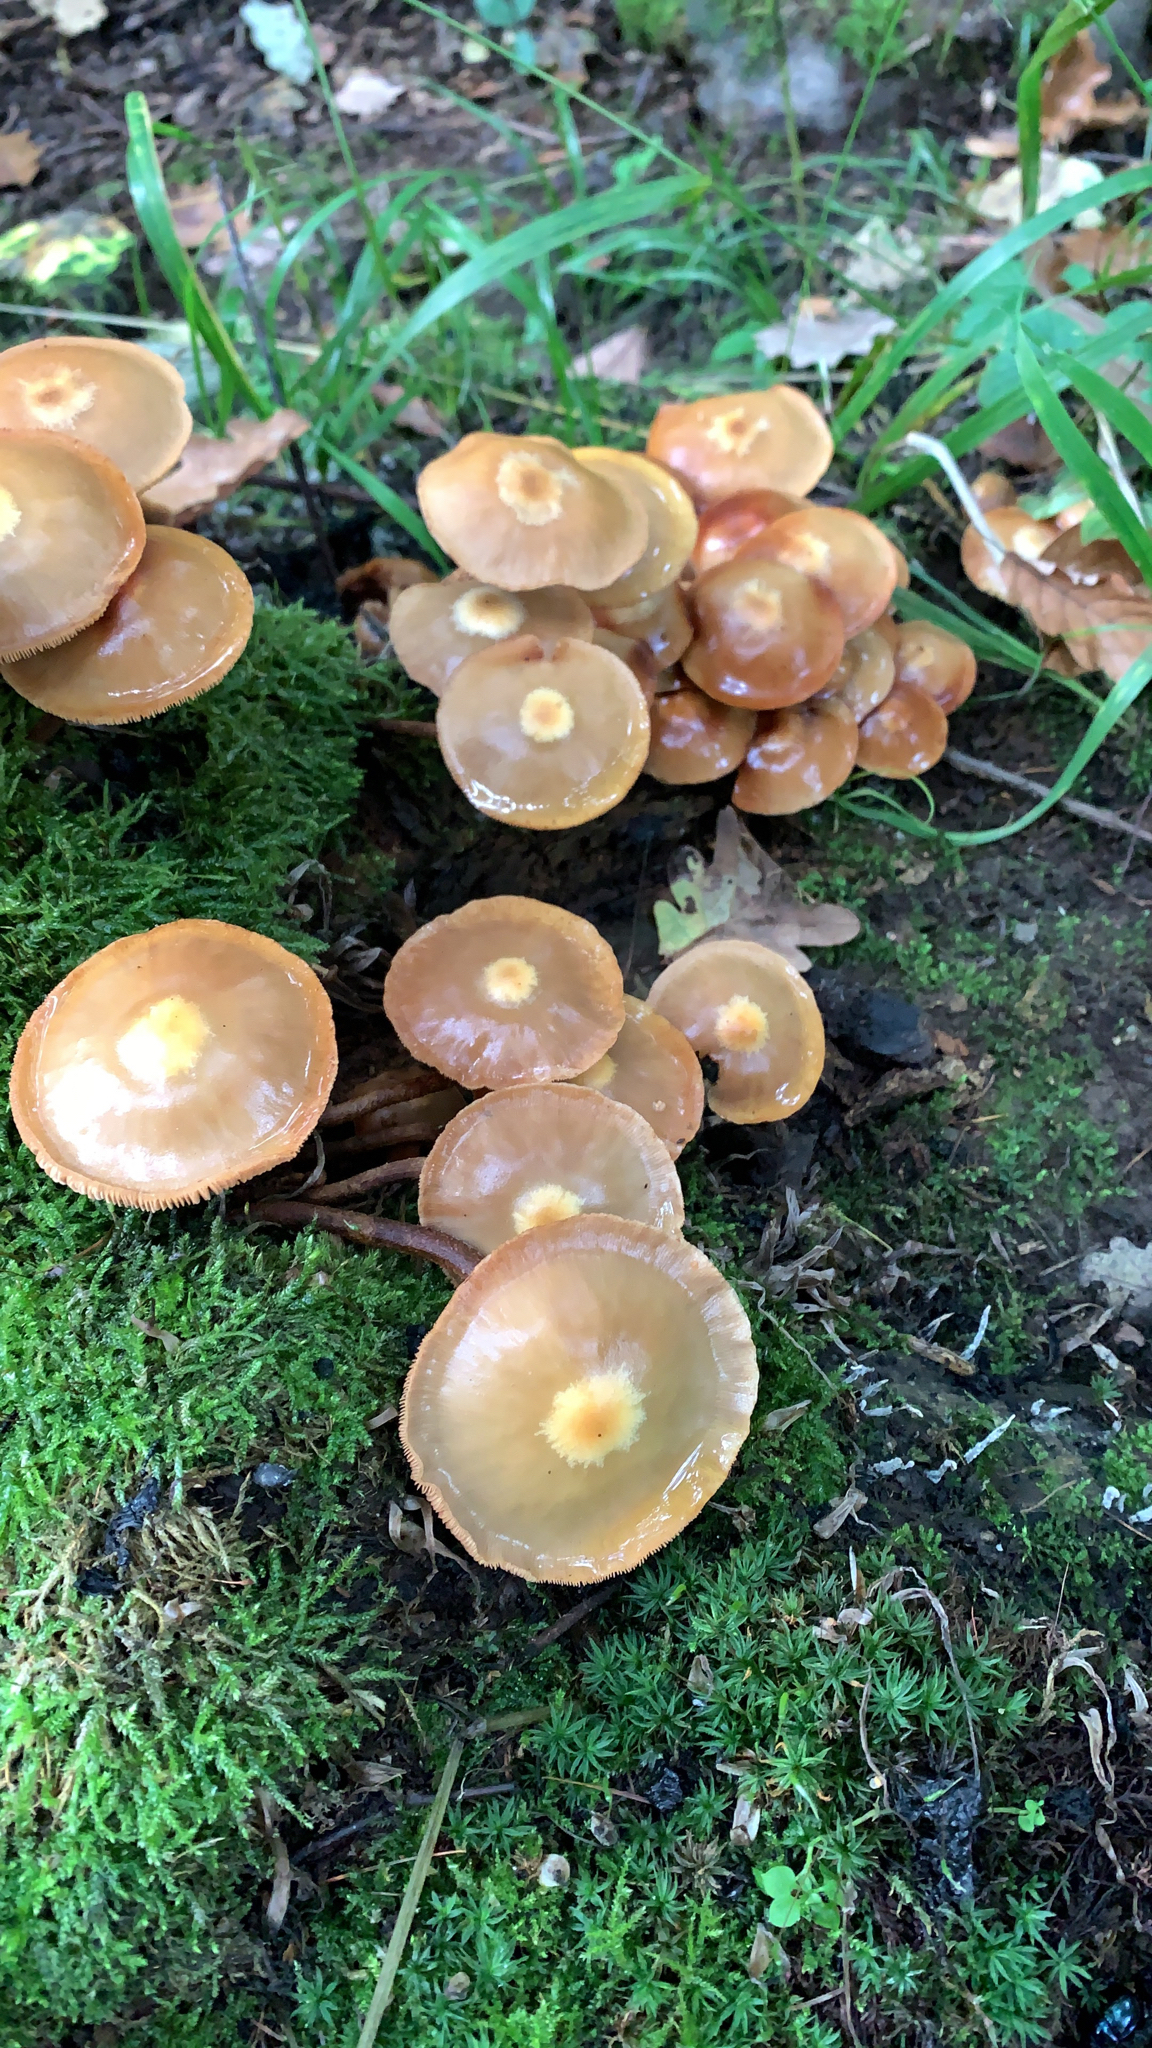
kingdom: Fungi
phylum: Basidiomycota
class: Agaricomycetes
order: Agaricales
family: Strophariaceae
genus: Kuehneromyces
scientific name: Kuehneromyces mutabilis
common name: Sheathed woodtuft
